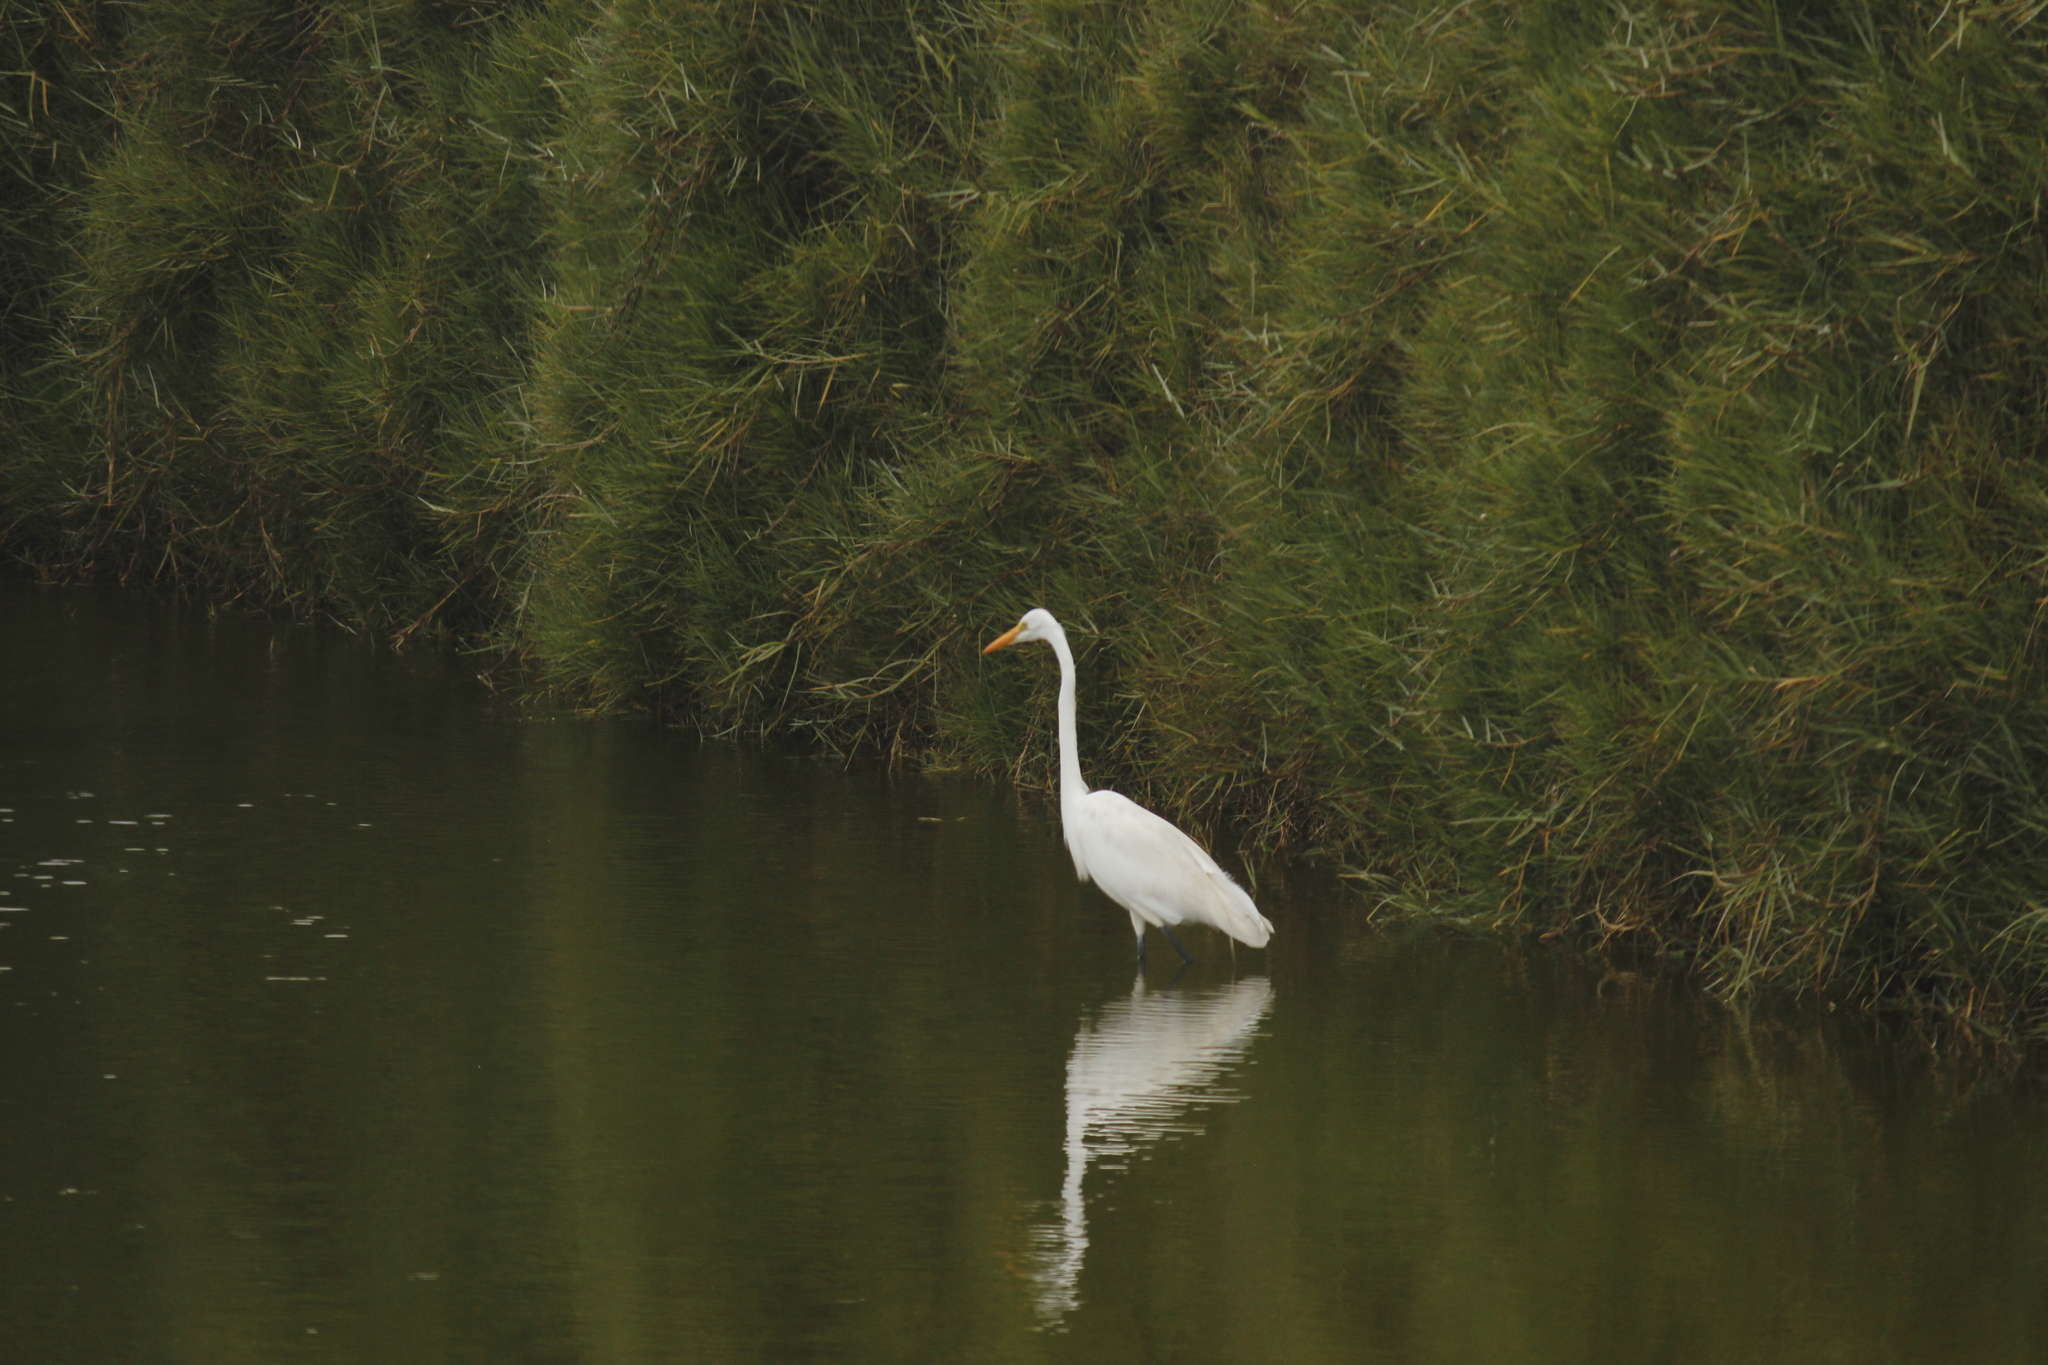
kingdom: Animalia
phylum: Chordata
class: Aves
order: Pelecaniformes
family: Ardeidae
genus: Ardea
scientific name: Ardea alba
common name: Great egret
